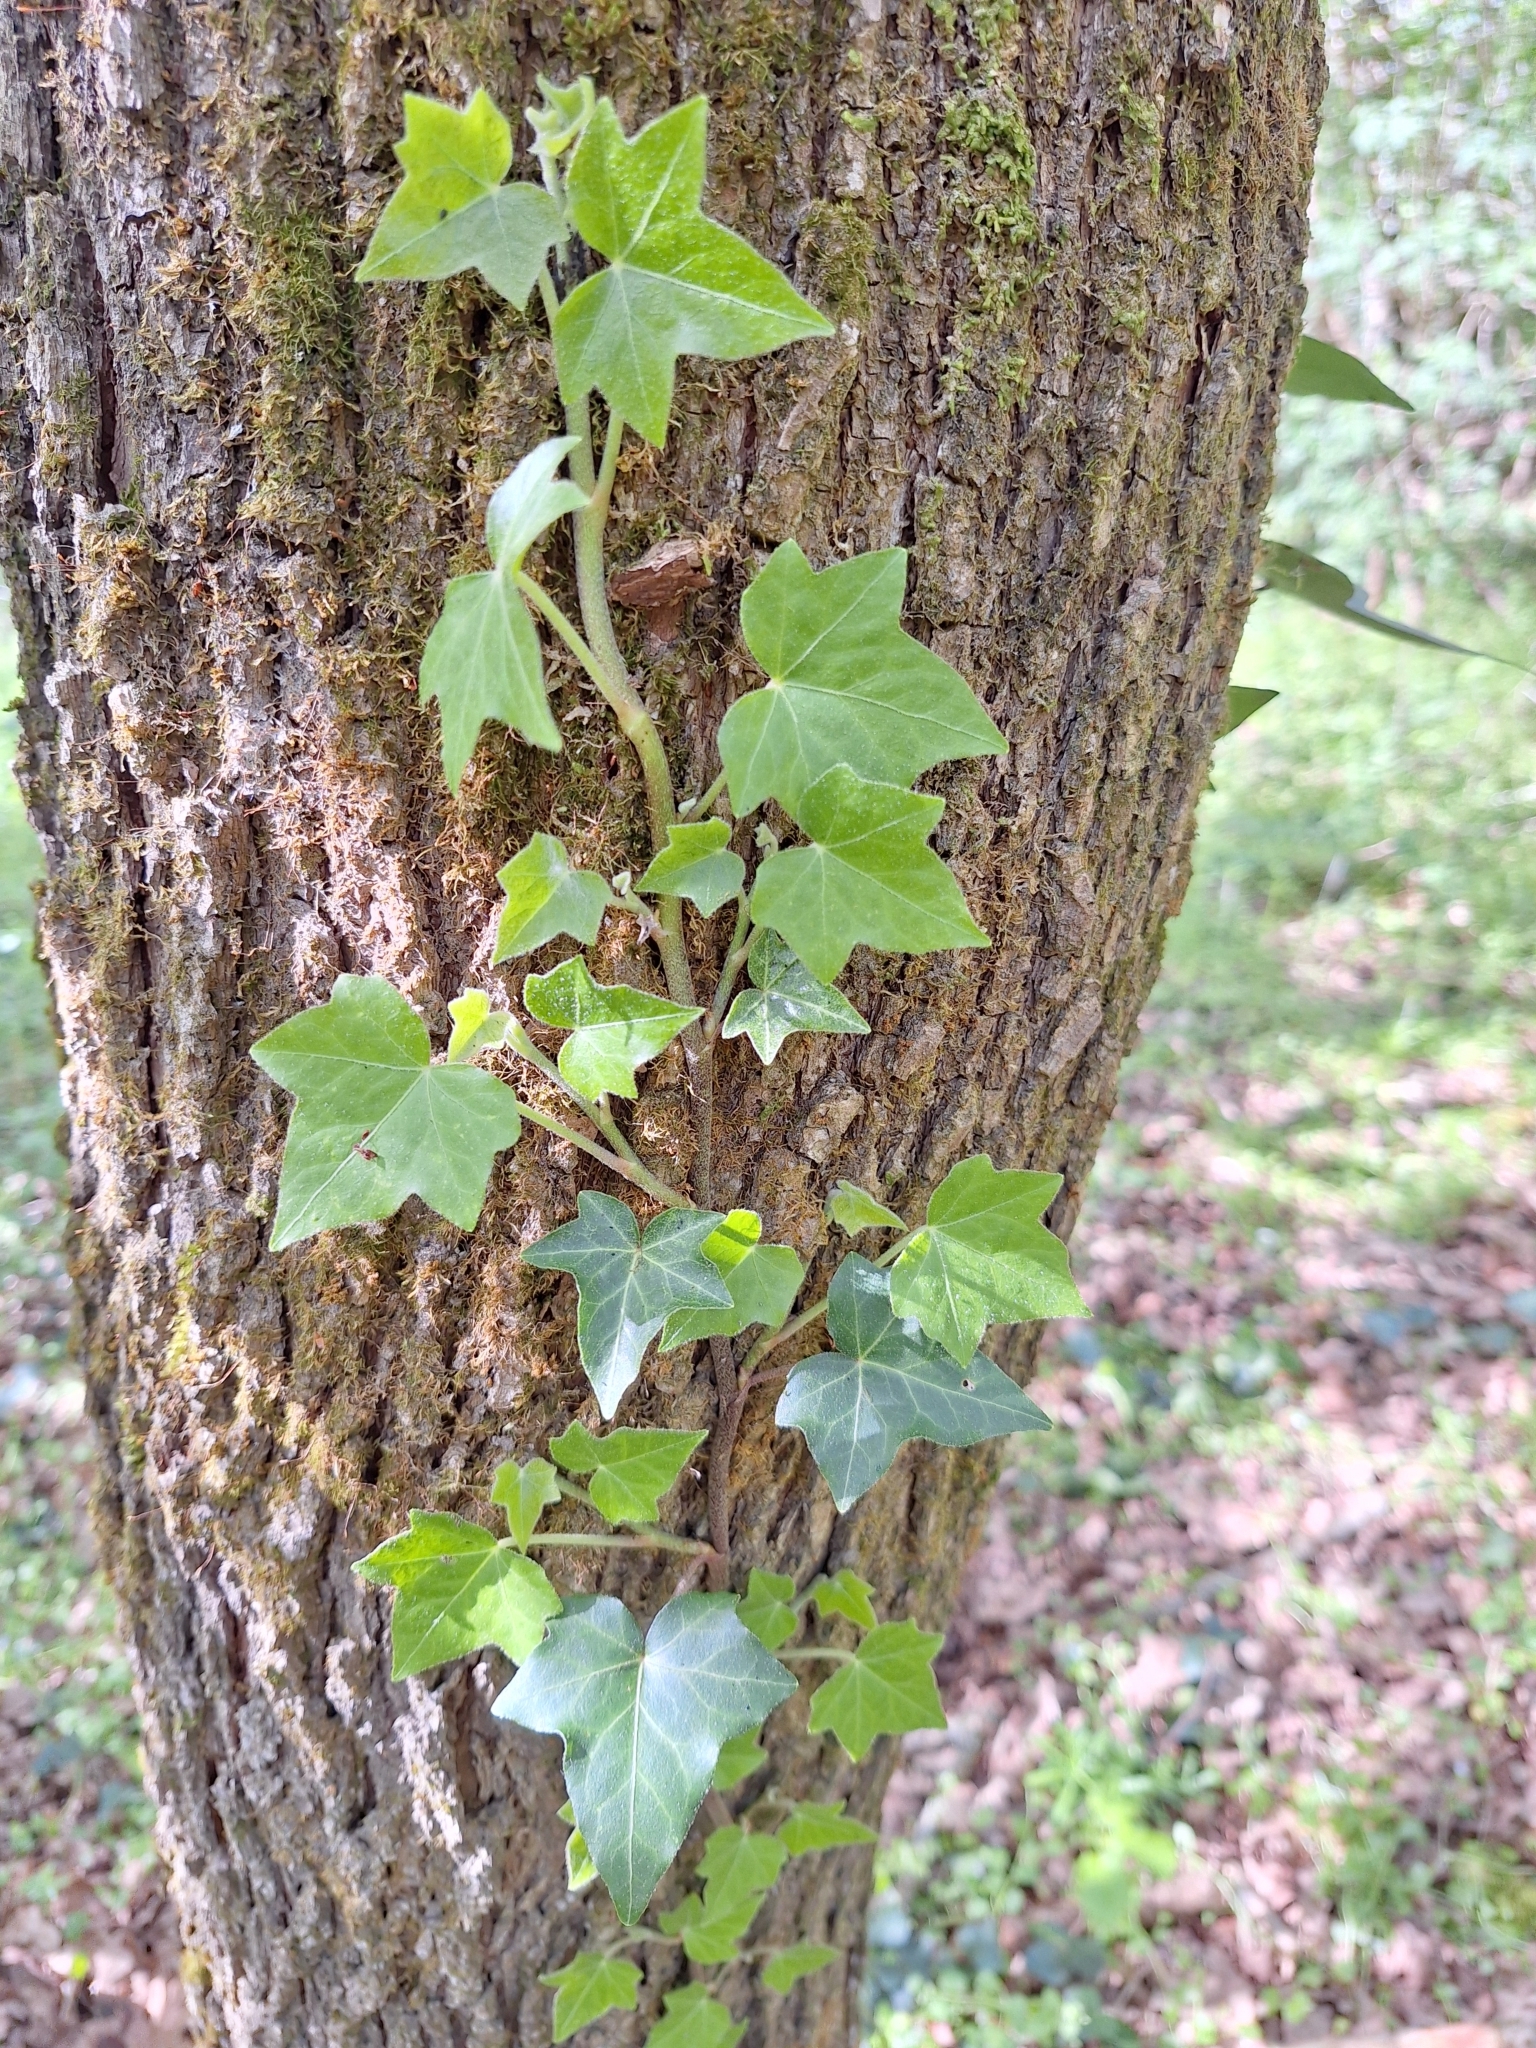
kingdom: Plantae
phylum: Tracheophyta
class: Magnoliopsida
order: Apiales
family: Araliaceae
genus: Hedera
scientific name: Hedera helix
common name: Ivy
